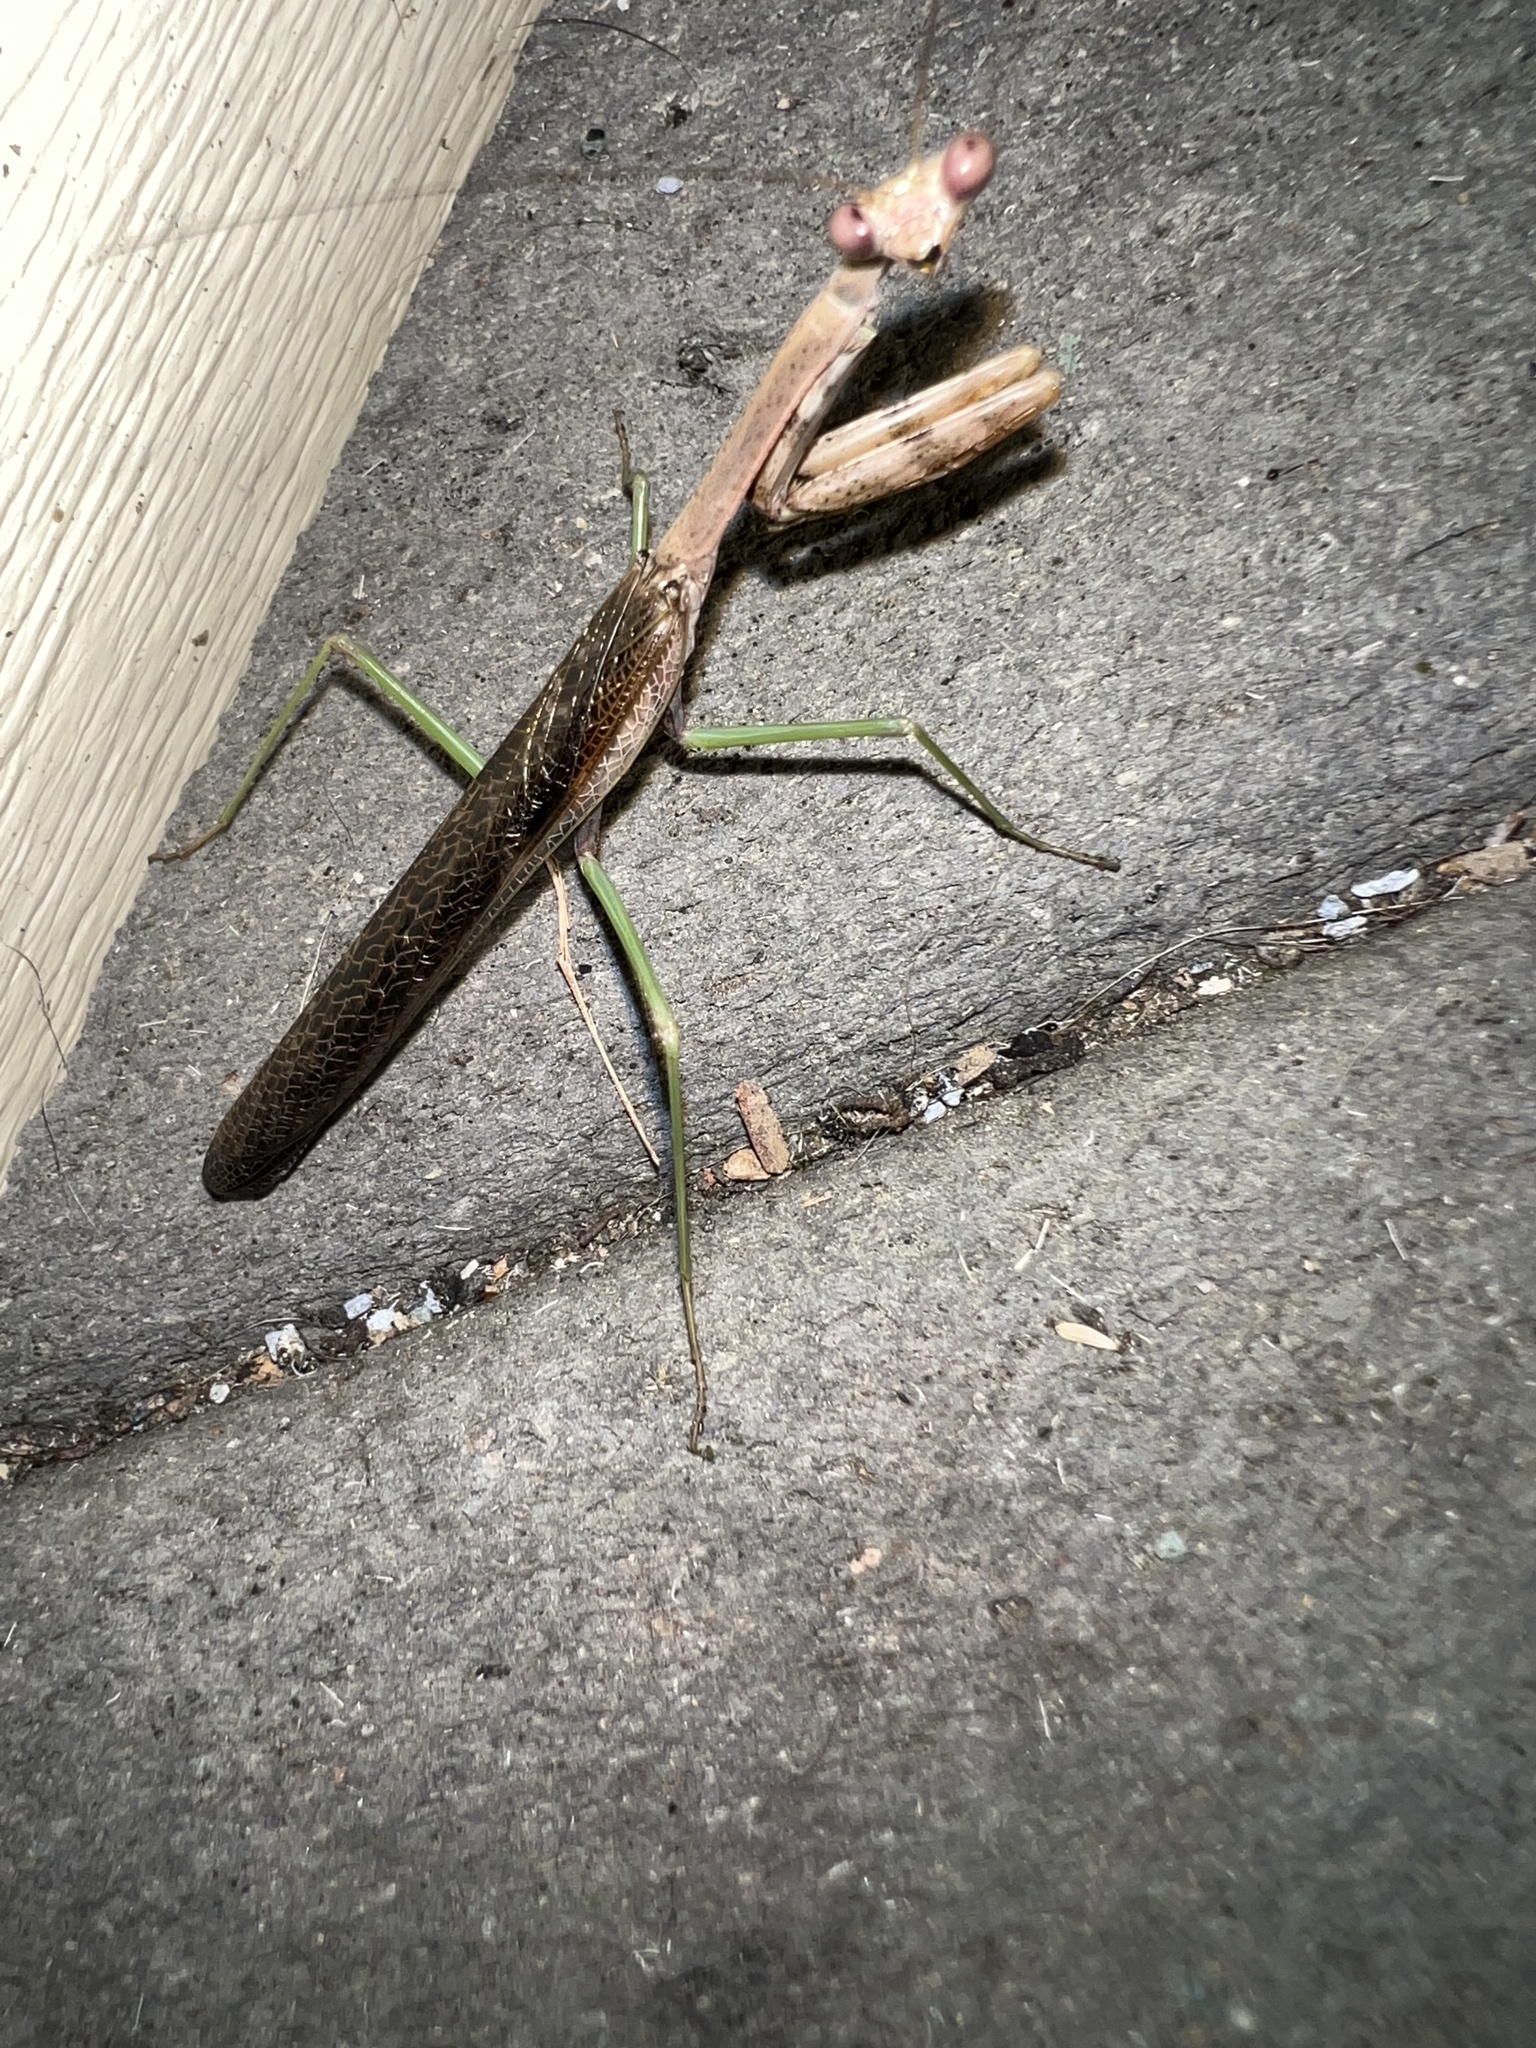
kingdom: Animalia
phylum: Arthropoda
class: Insecta
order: Mantodea
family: Mantidae
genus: Stagmomantis
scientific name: Stagmomantis carolina
